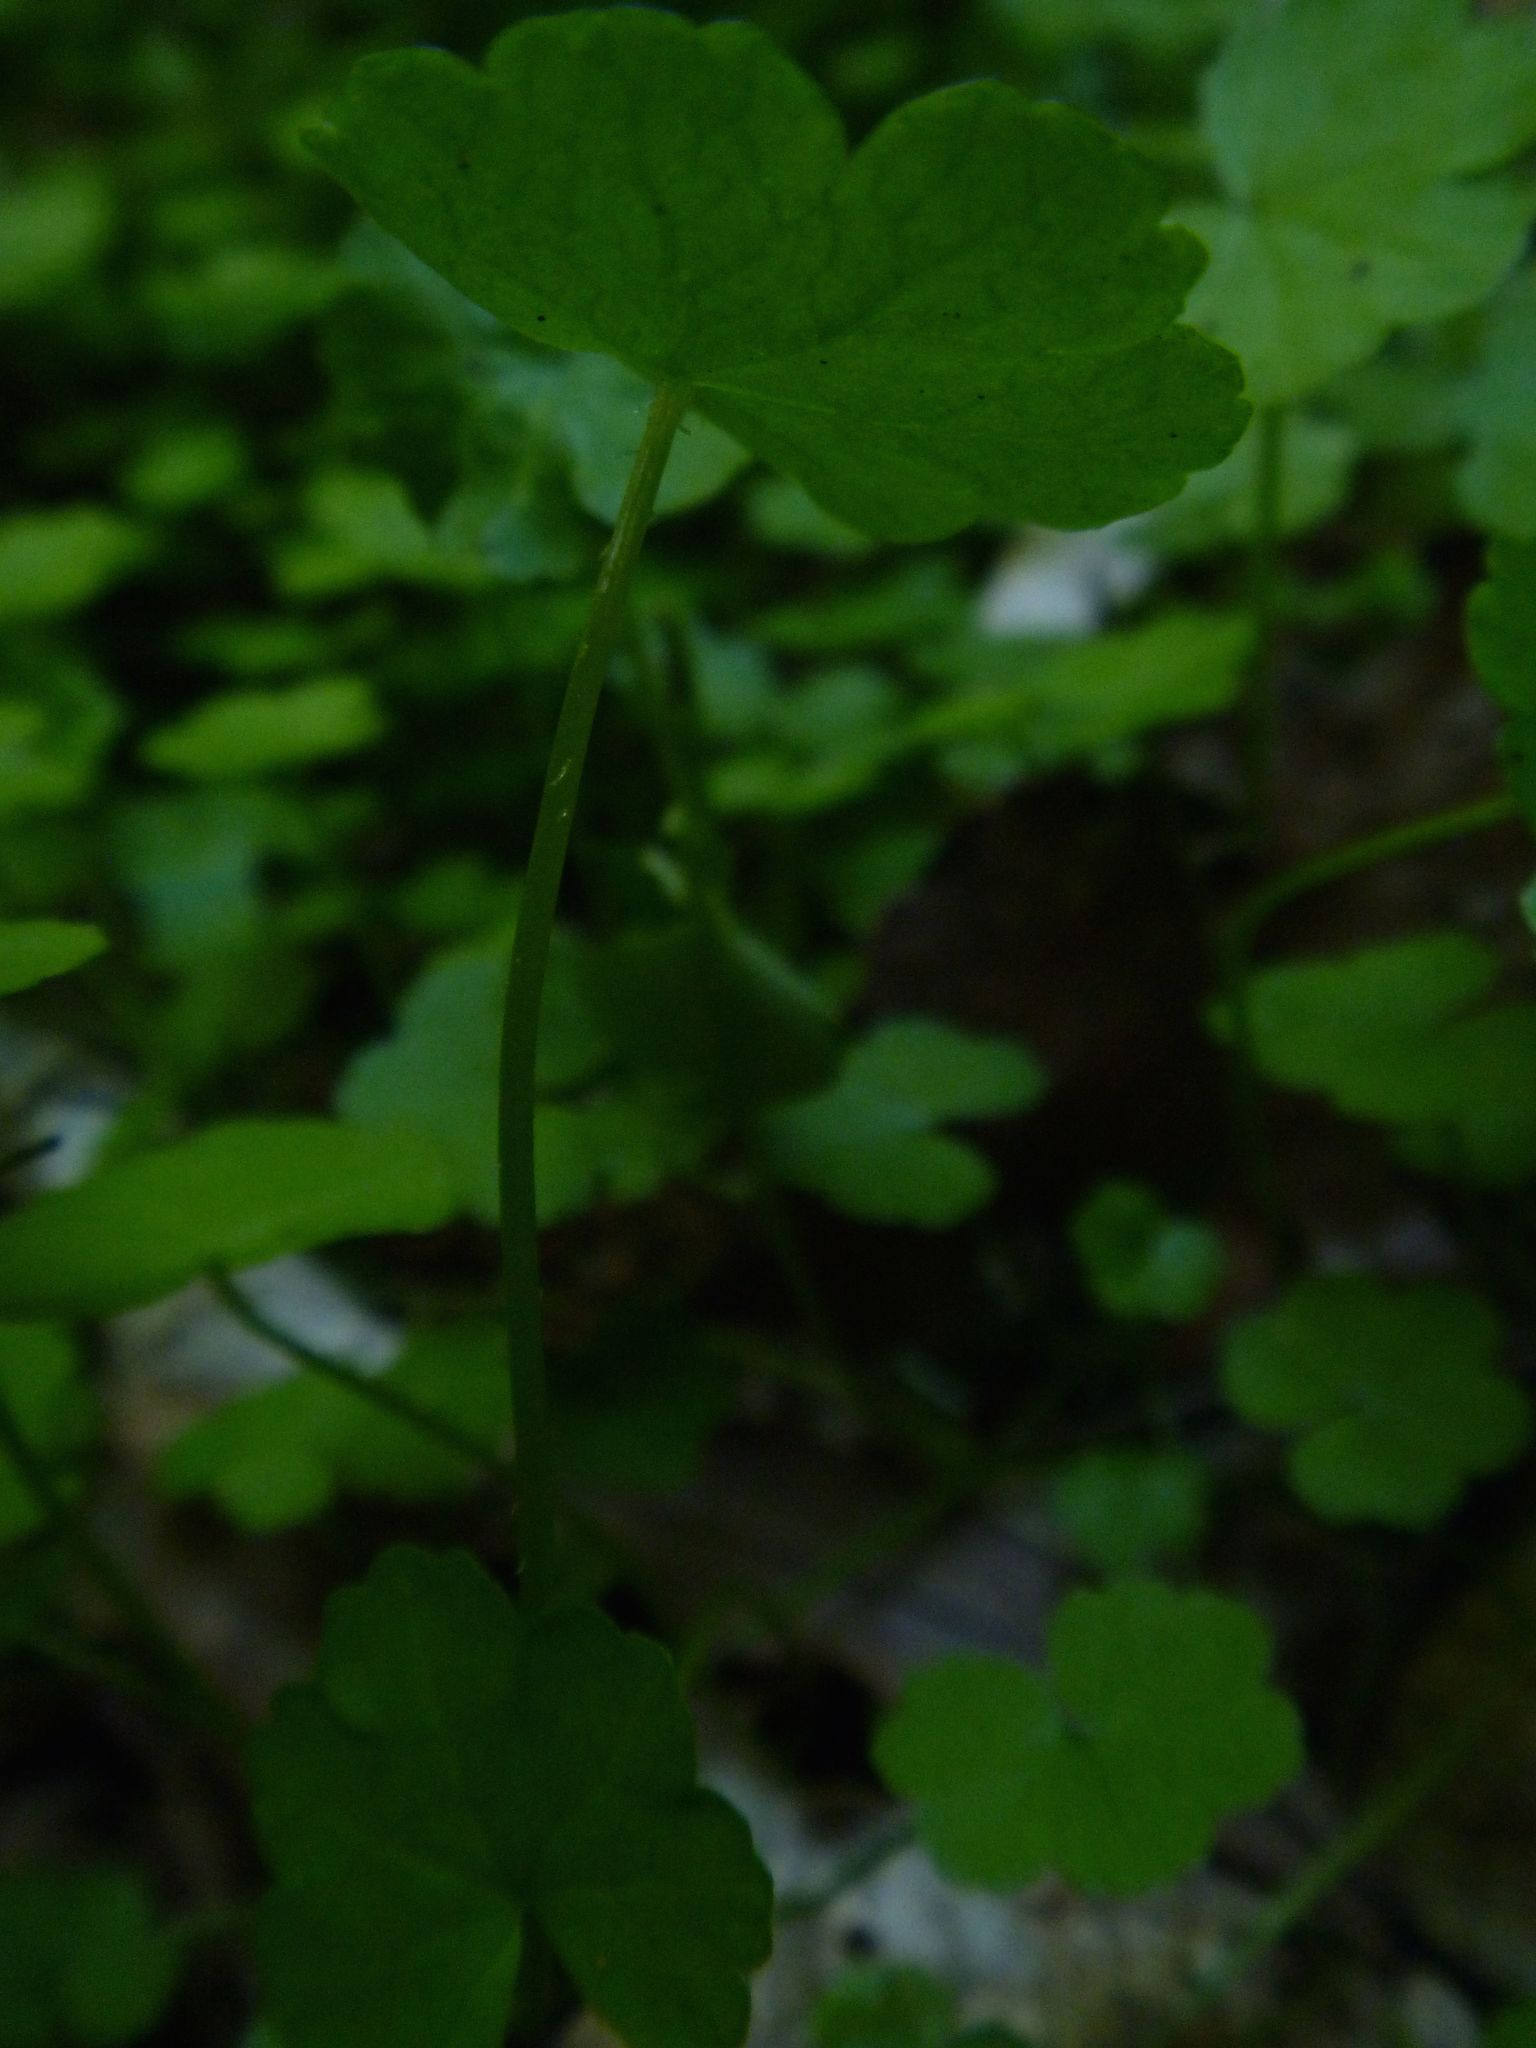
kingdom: Plantae
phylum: Tracheophyta
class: Magnoliopsida
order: Apiales
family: Araliaceae
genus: Hydrocotyle
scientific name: Hydrocotyle heteromeria
